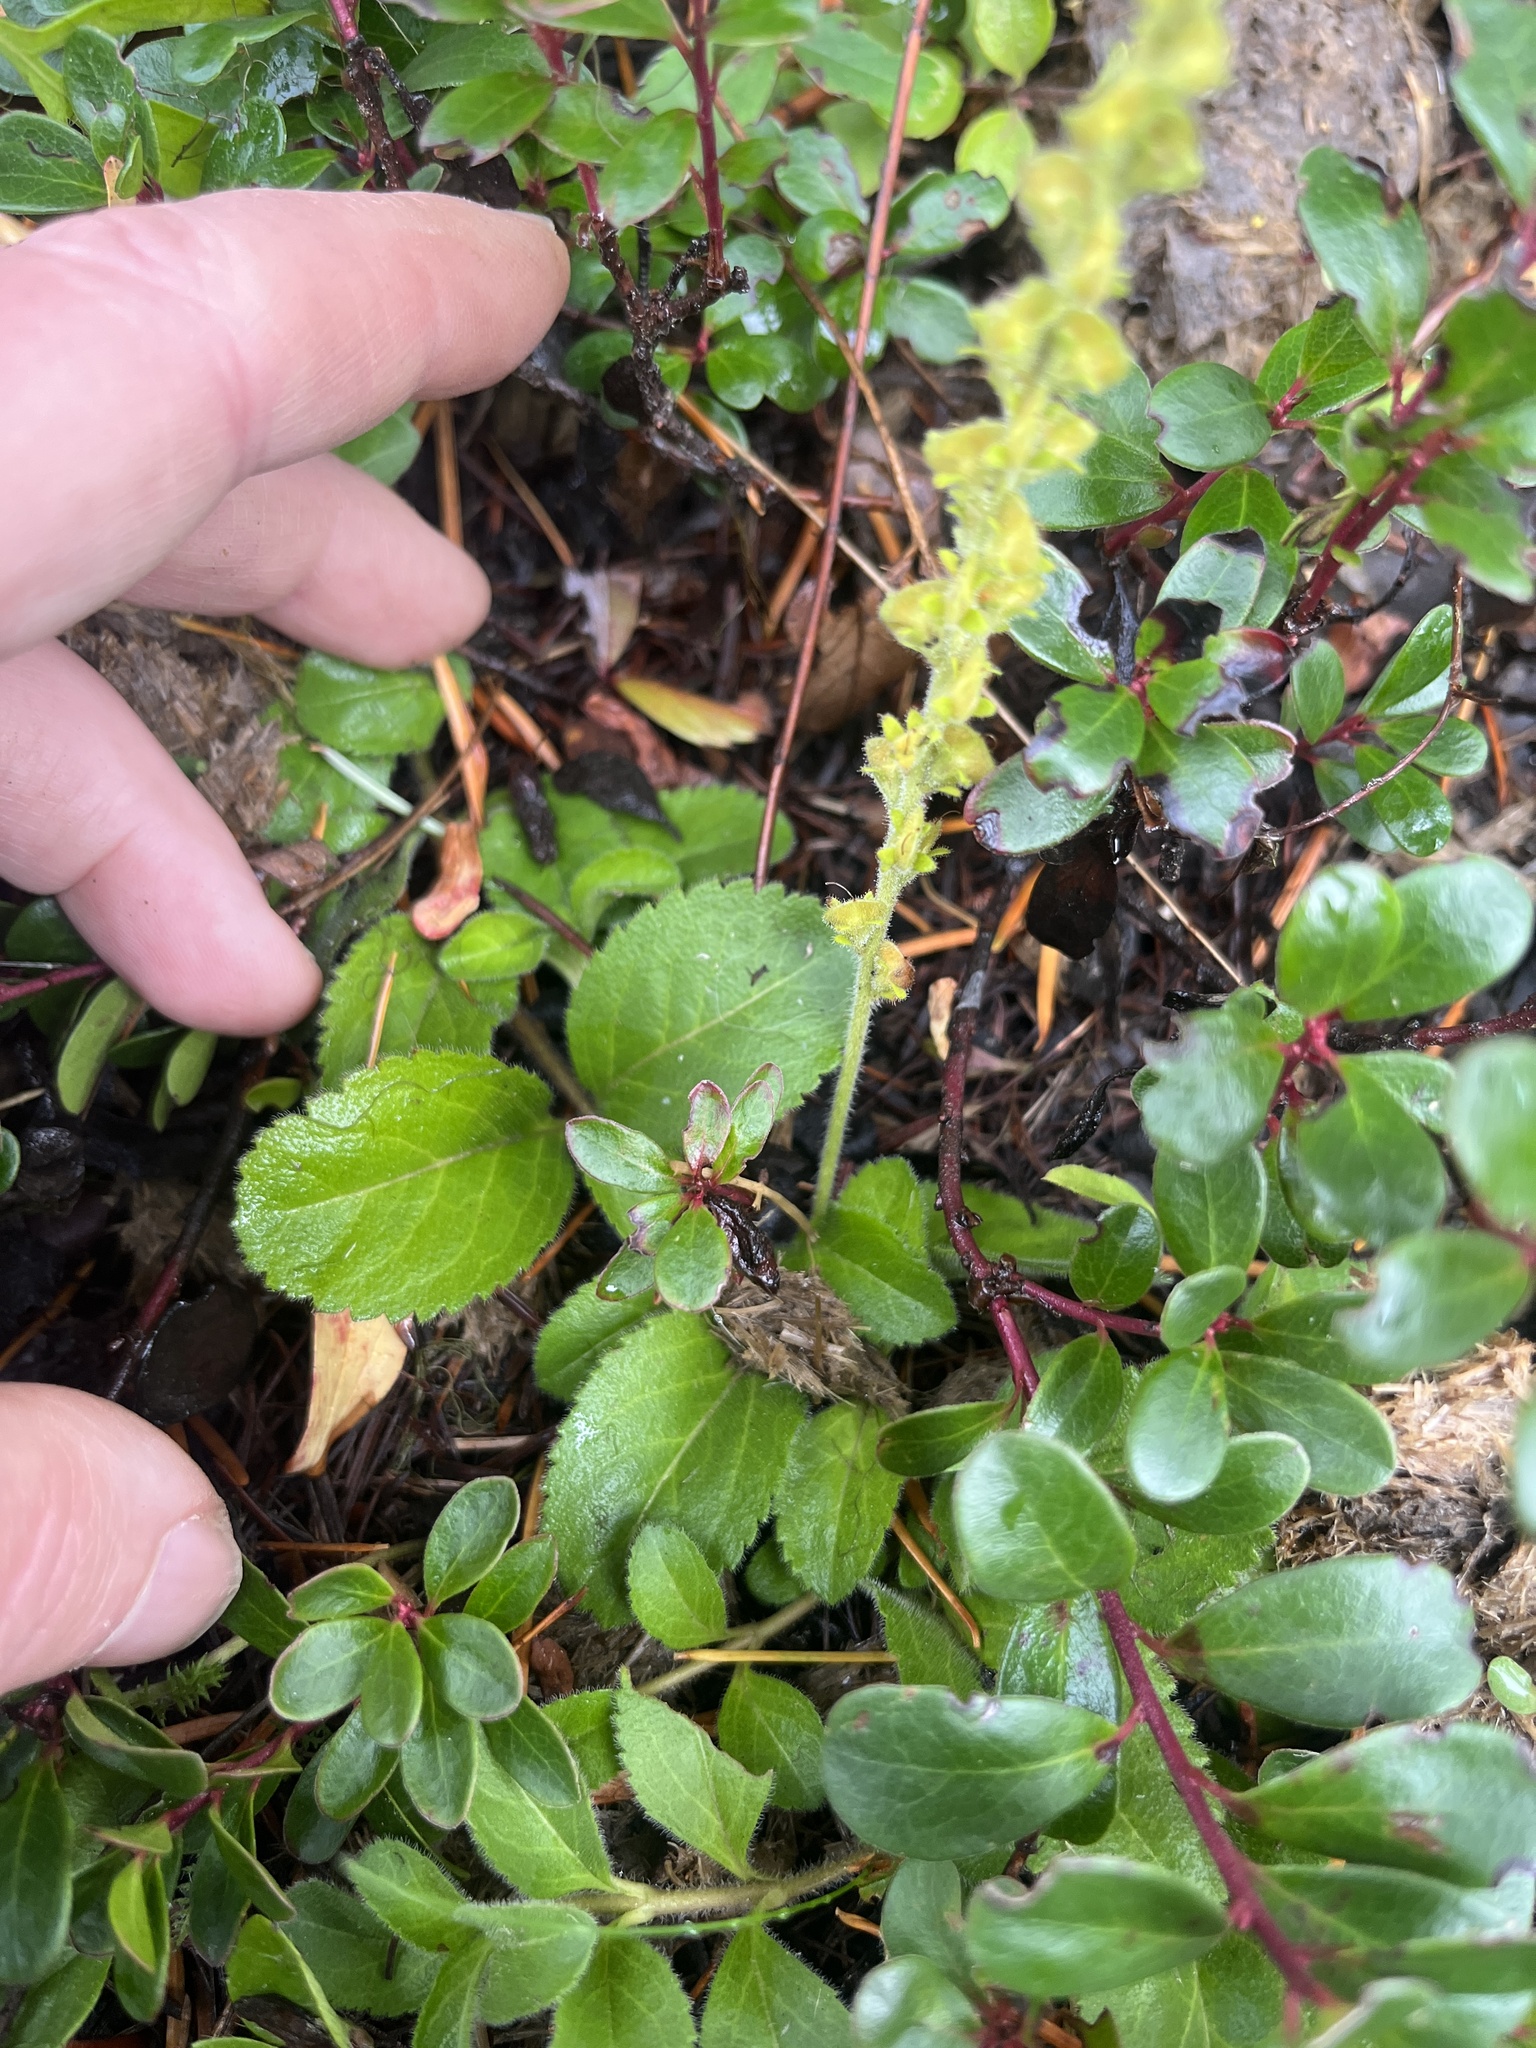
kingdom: Plantae
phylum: Tracheophyta
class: Magnoliopsida
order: Lamiales
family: Plantaginaceae
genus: Veronica
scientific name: Veronica officinalis
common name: Common speedwell
